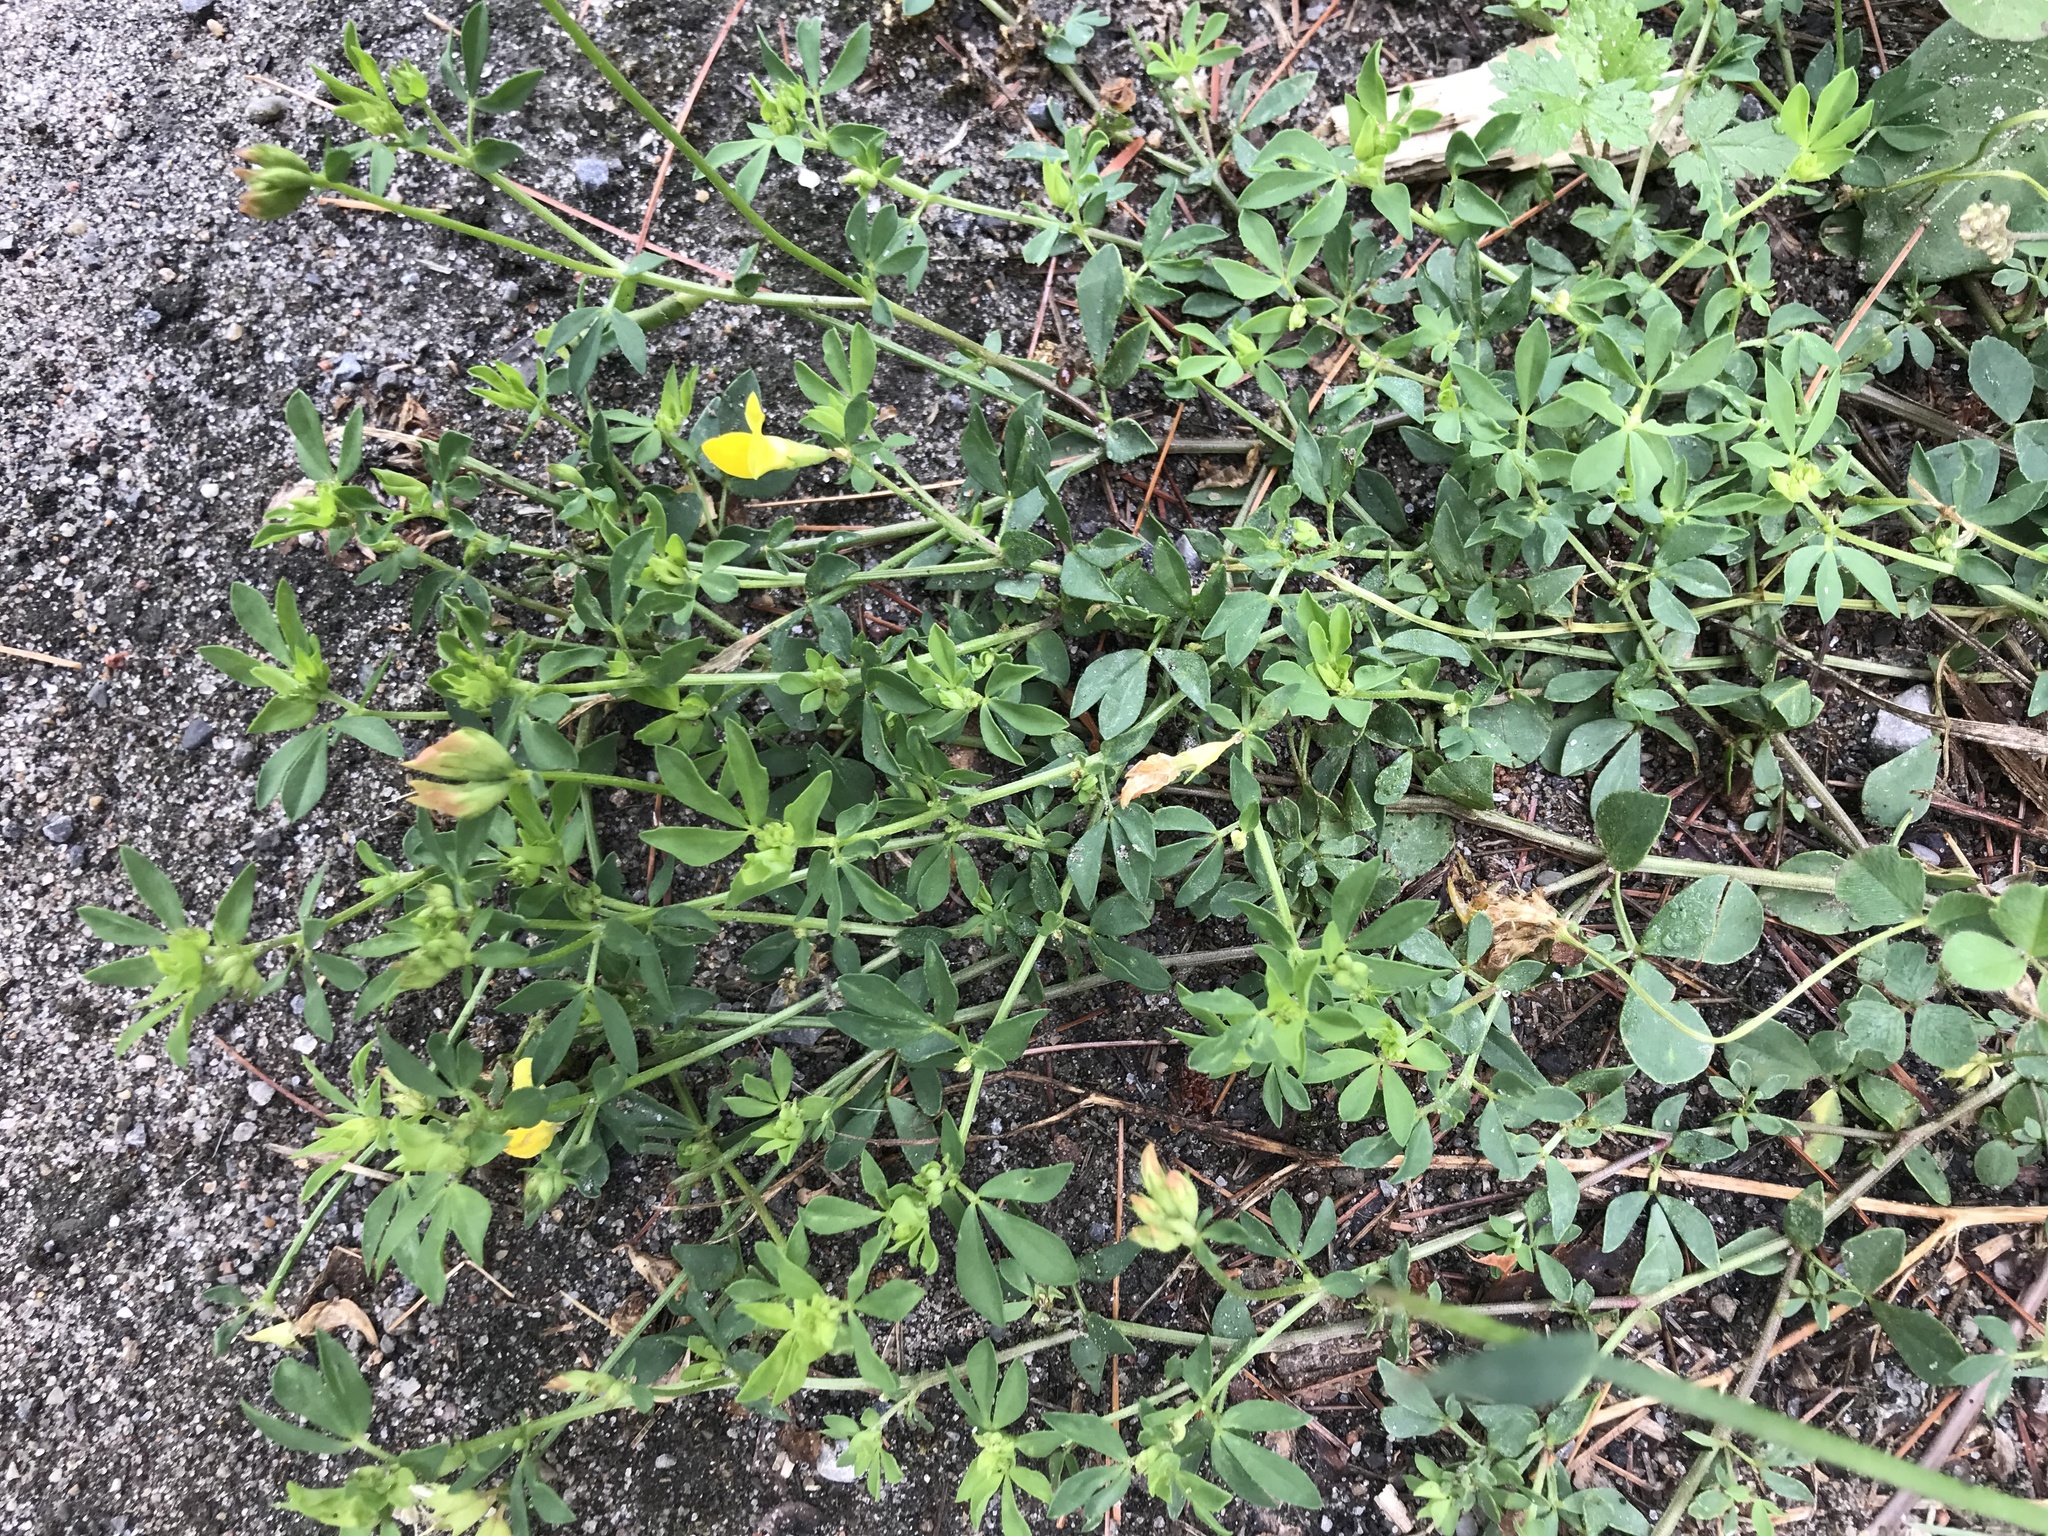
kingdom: Plantae
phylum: Tracheophyta
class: Magnoliopsida
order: Fabales
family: Fabaceae
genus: Lotus
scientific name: Lotus corniculatus
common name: Common bird's-foot-trefoil
